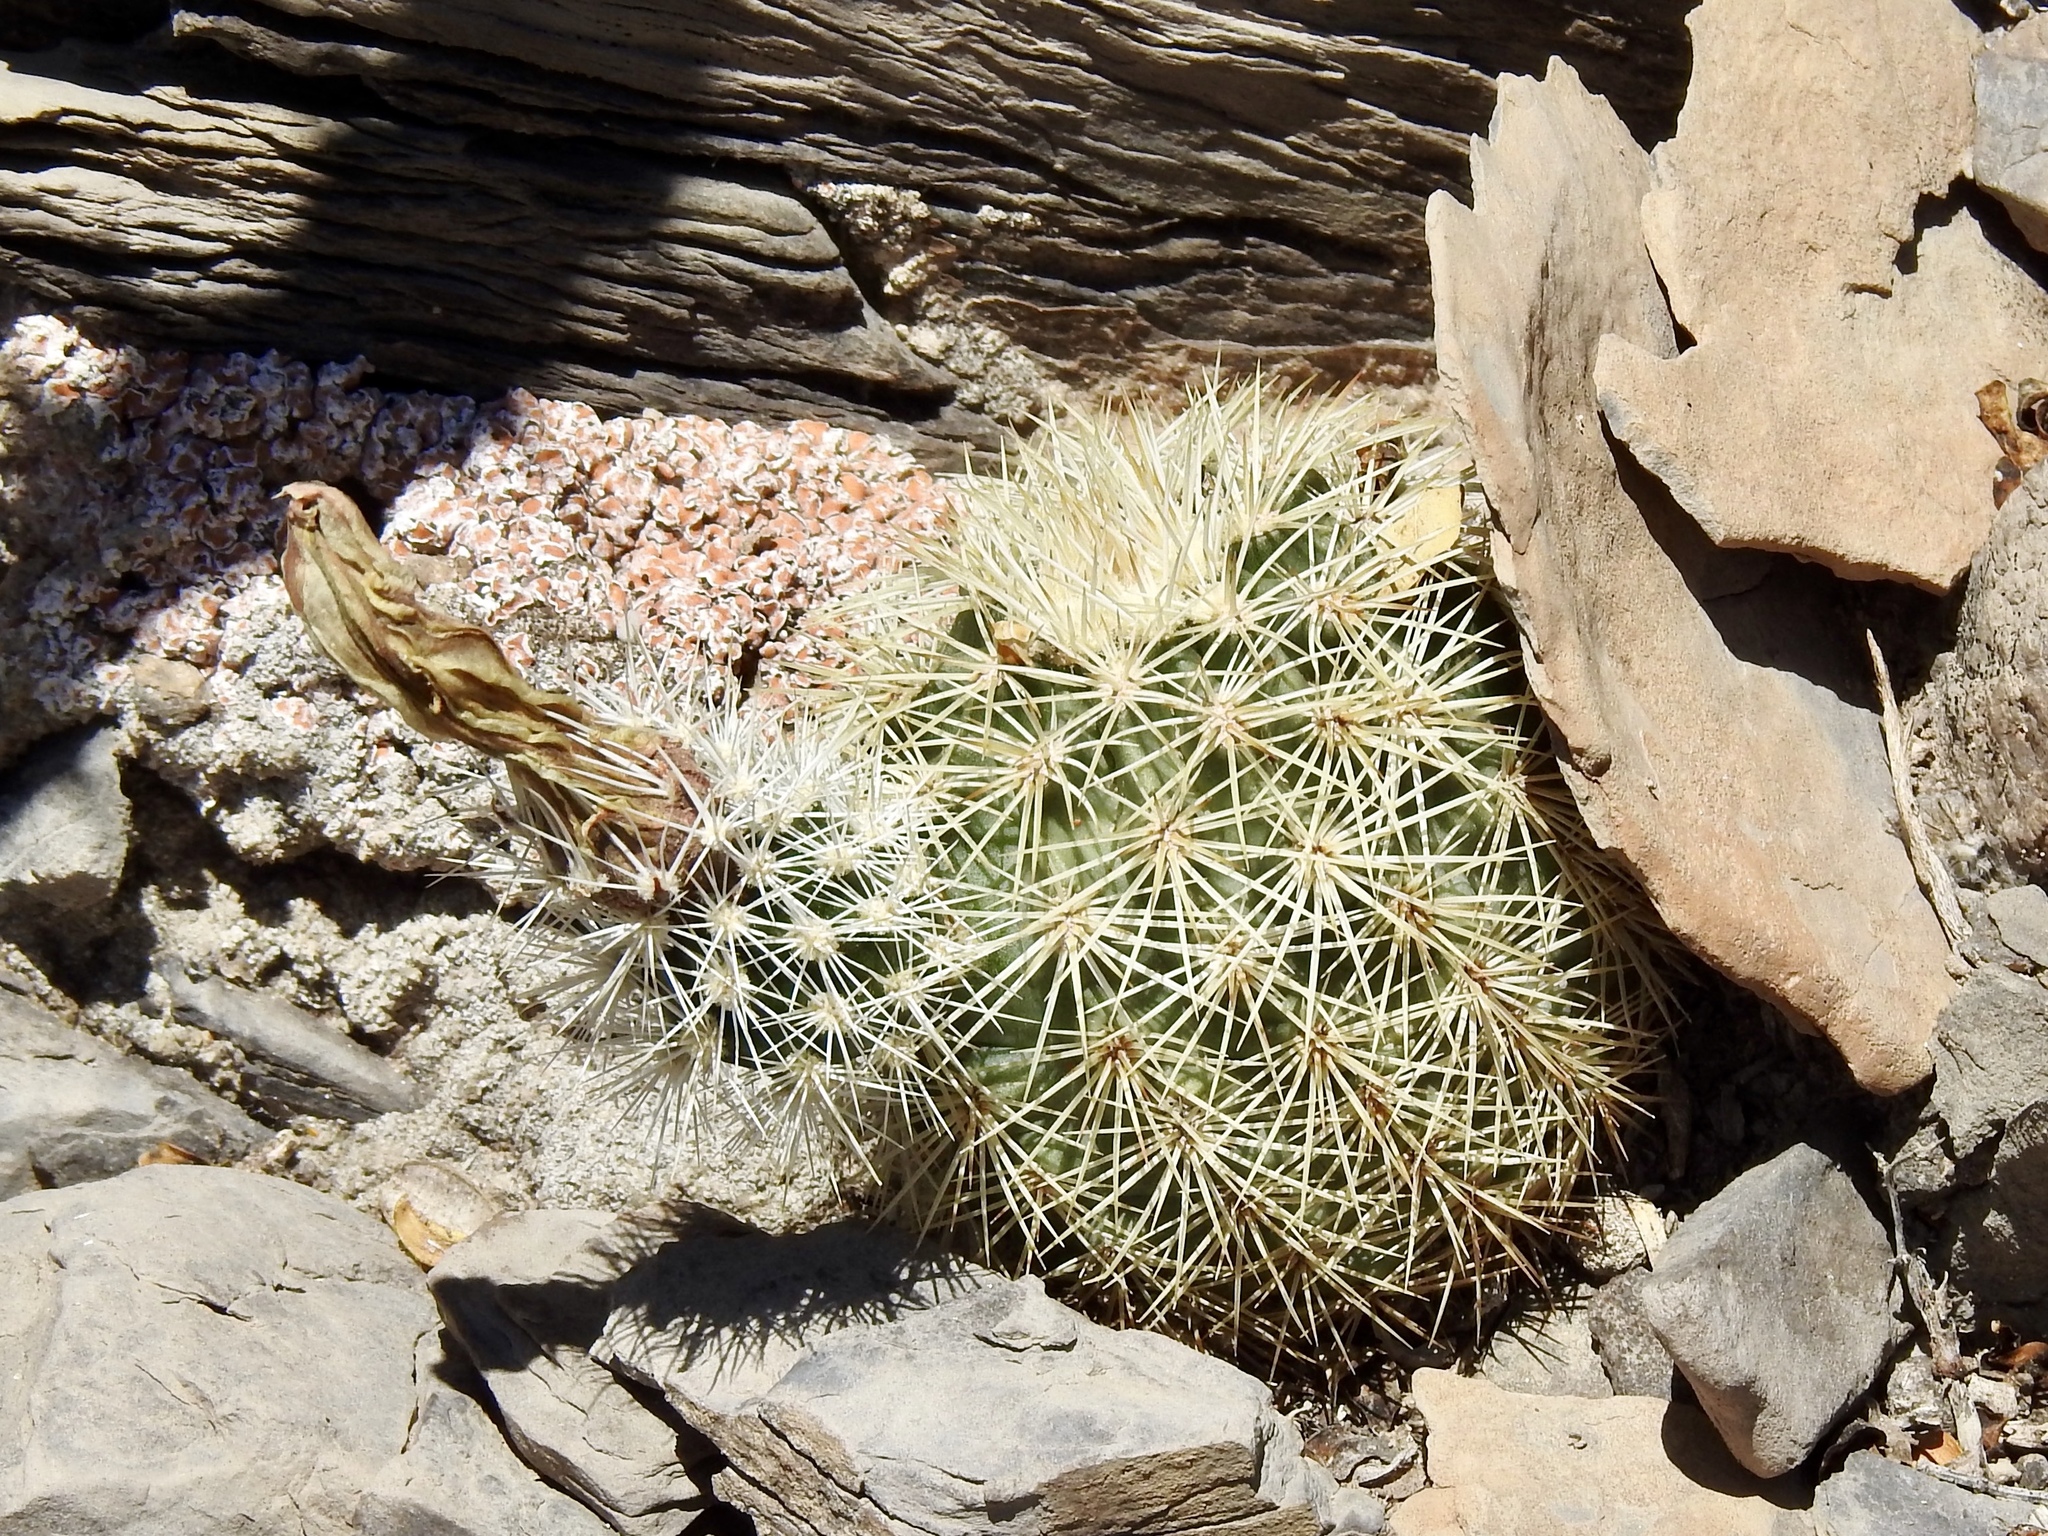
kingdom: Plantae
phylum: Tracheophyta
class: Magnoliopsida
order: Caryophyllales
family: Cactaceae
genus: Echinocereus
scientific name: Echinocereus dasyacanthus
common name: Spiny hedgehog cactus
